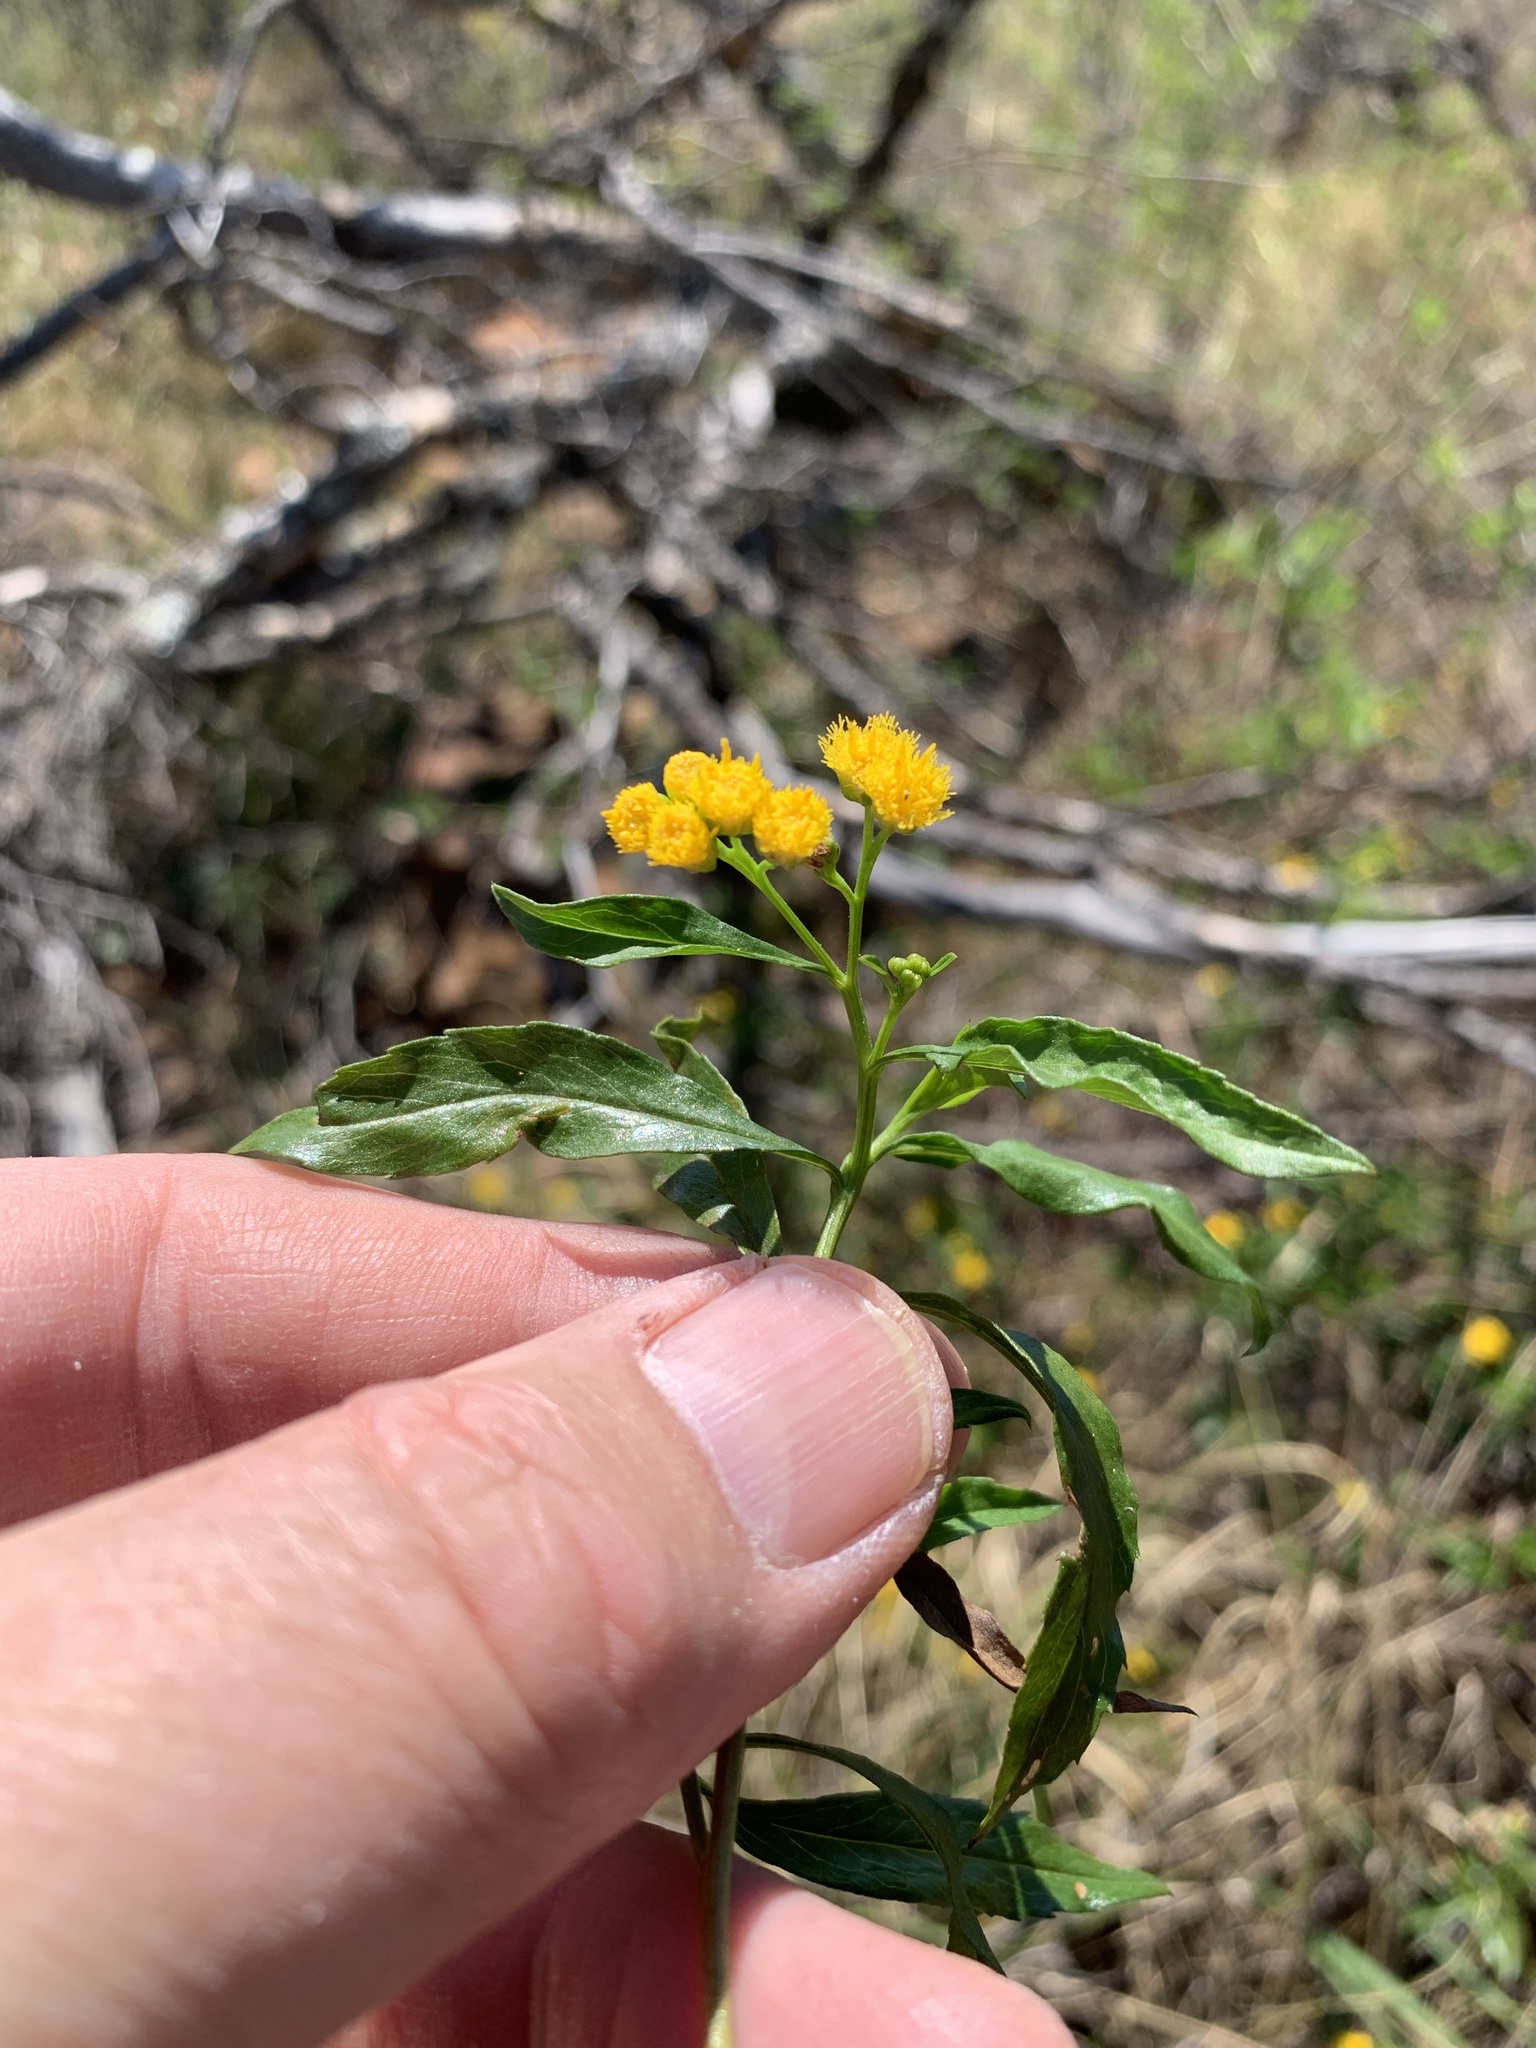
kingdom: Plantae
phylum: Tracheophyta
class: Magnoliopsida
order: Asterales
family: Asteraceae
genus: Psiadia
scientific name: Psiadia punctulata
